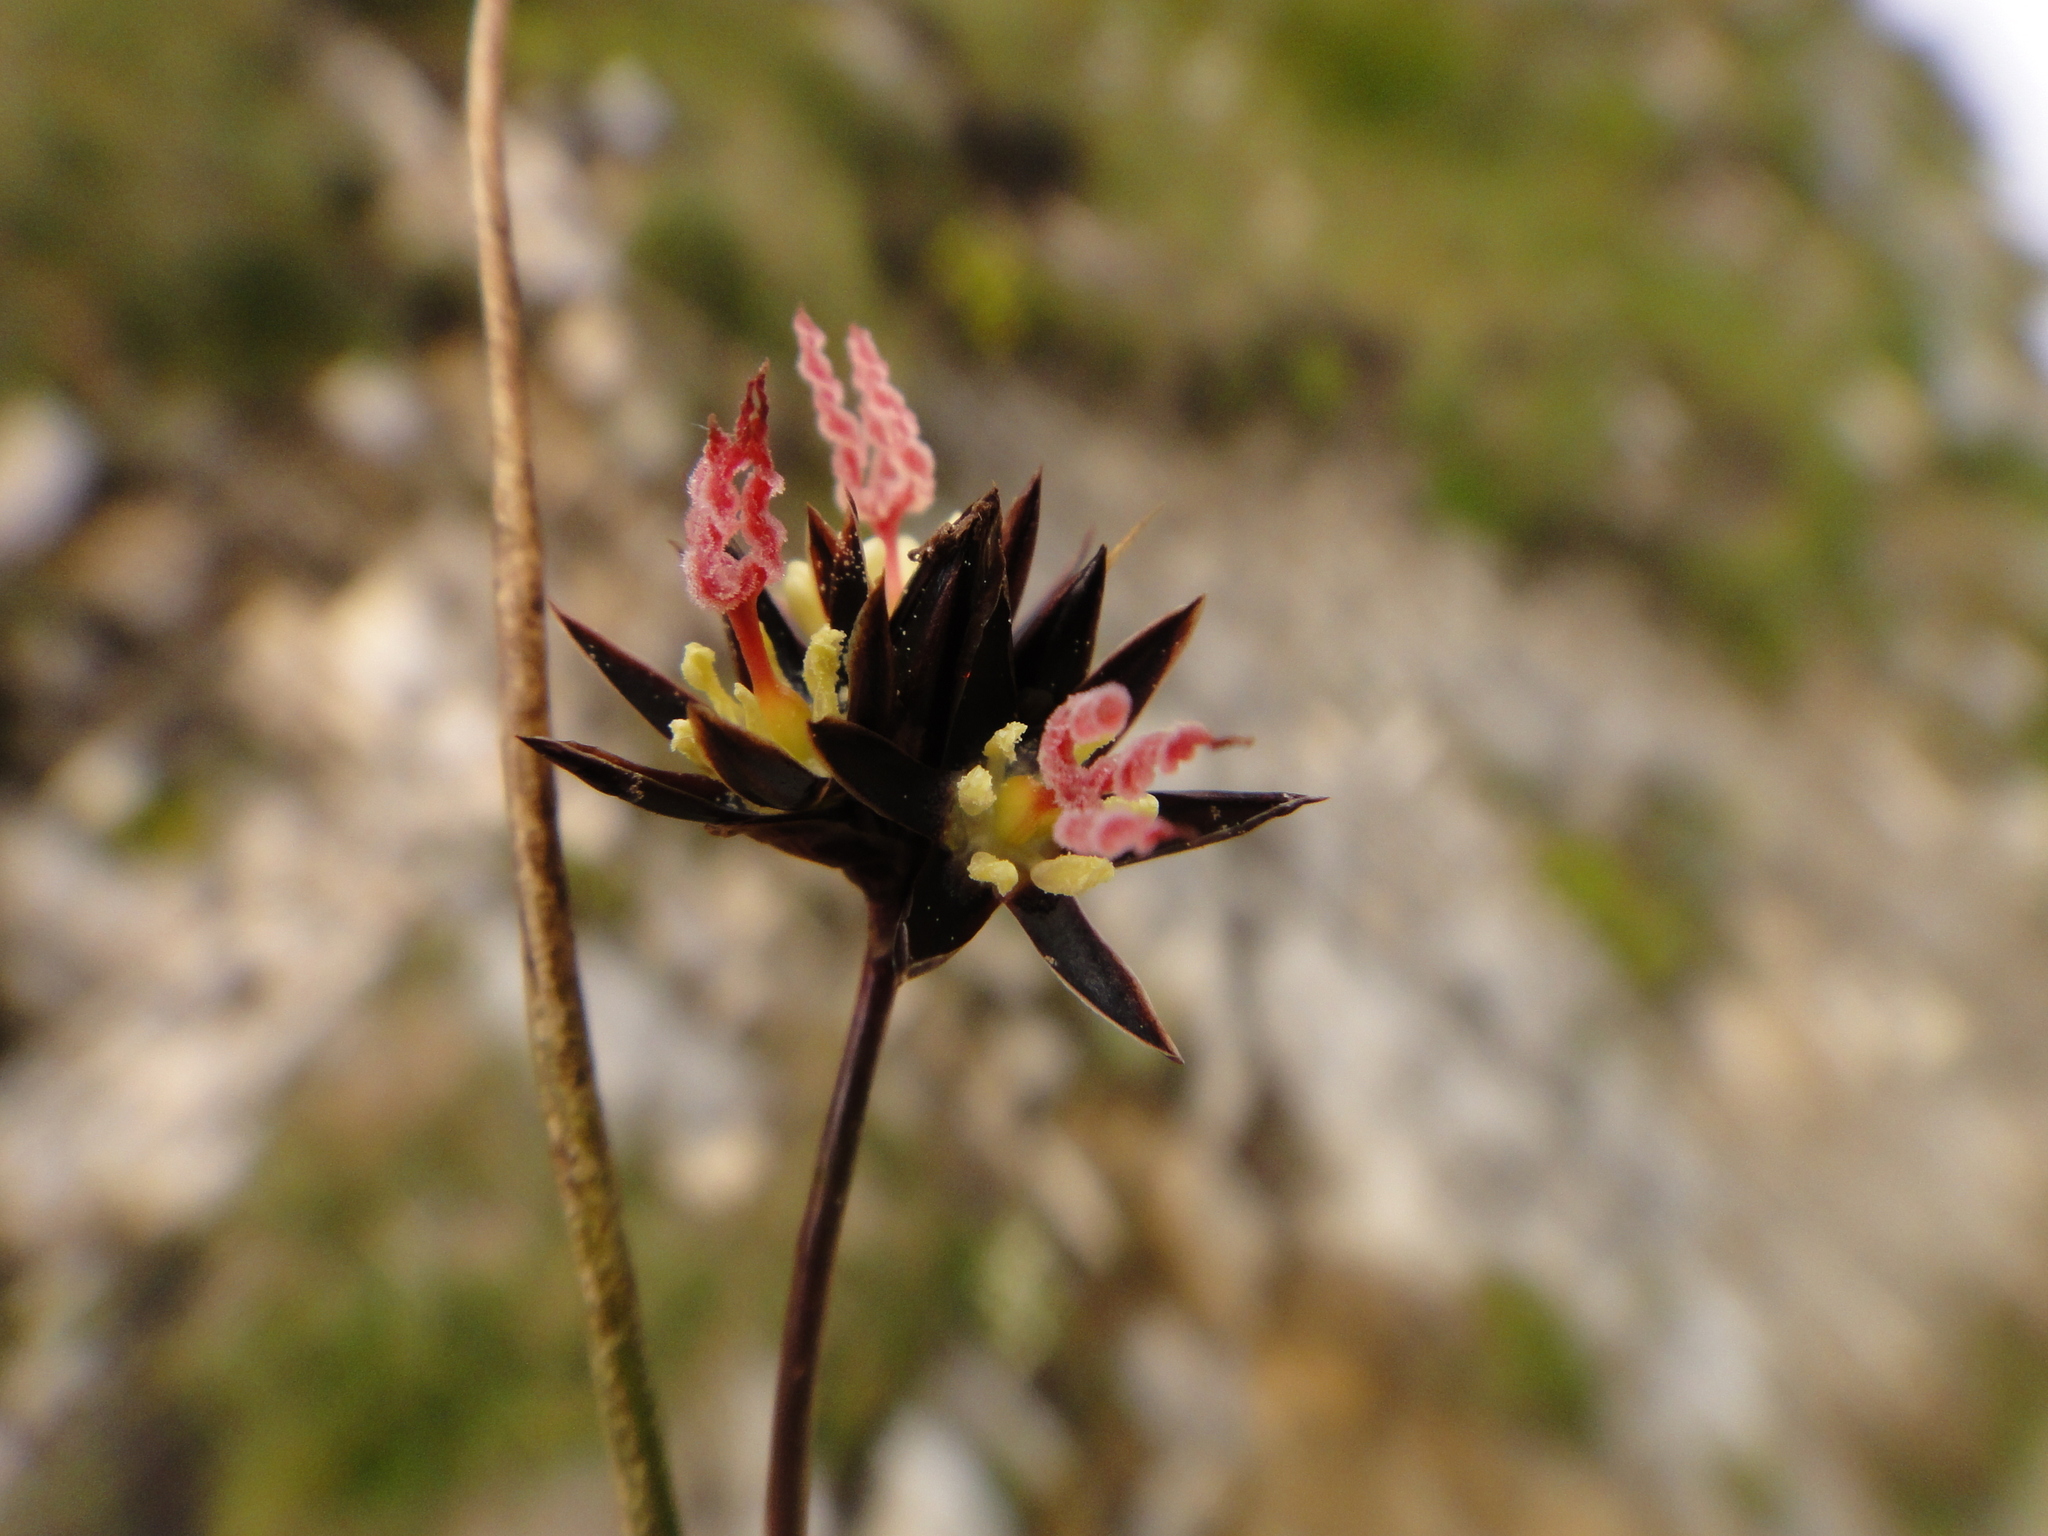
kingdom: Plantae
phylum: Tracheophyta
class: Liliopsida
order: Poales
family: Juncaceae
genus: Juncus
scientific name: Juncus jacquinii
